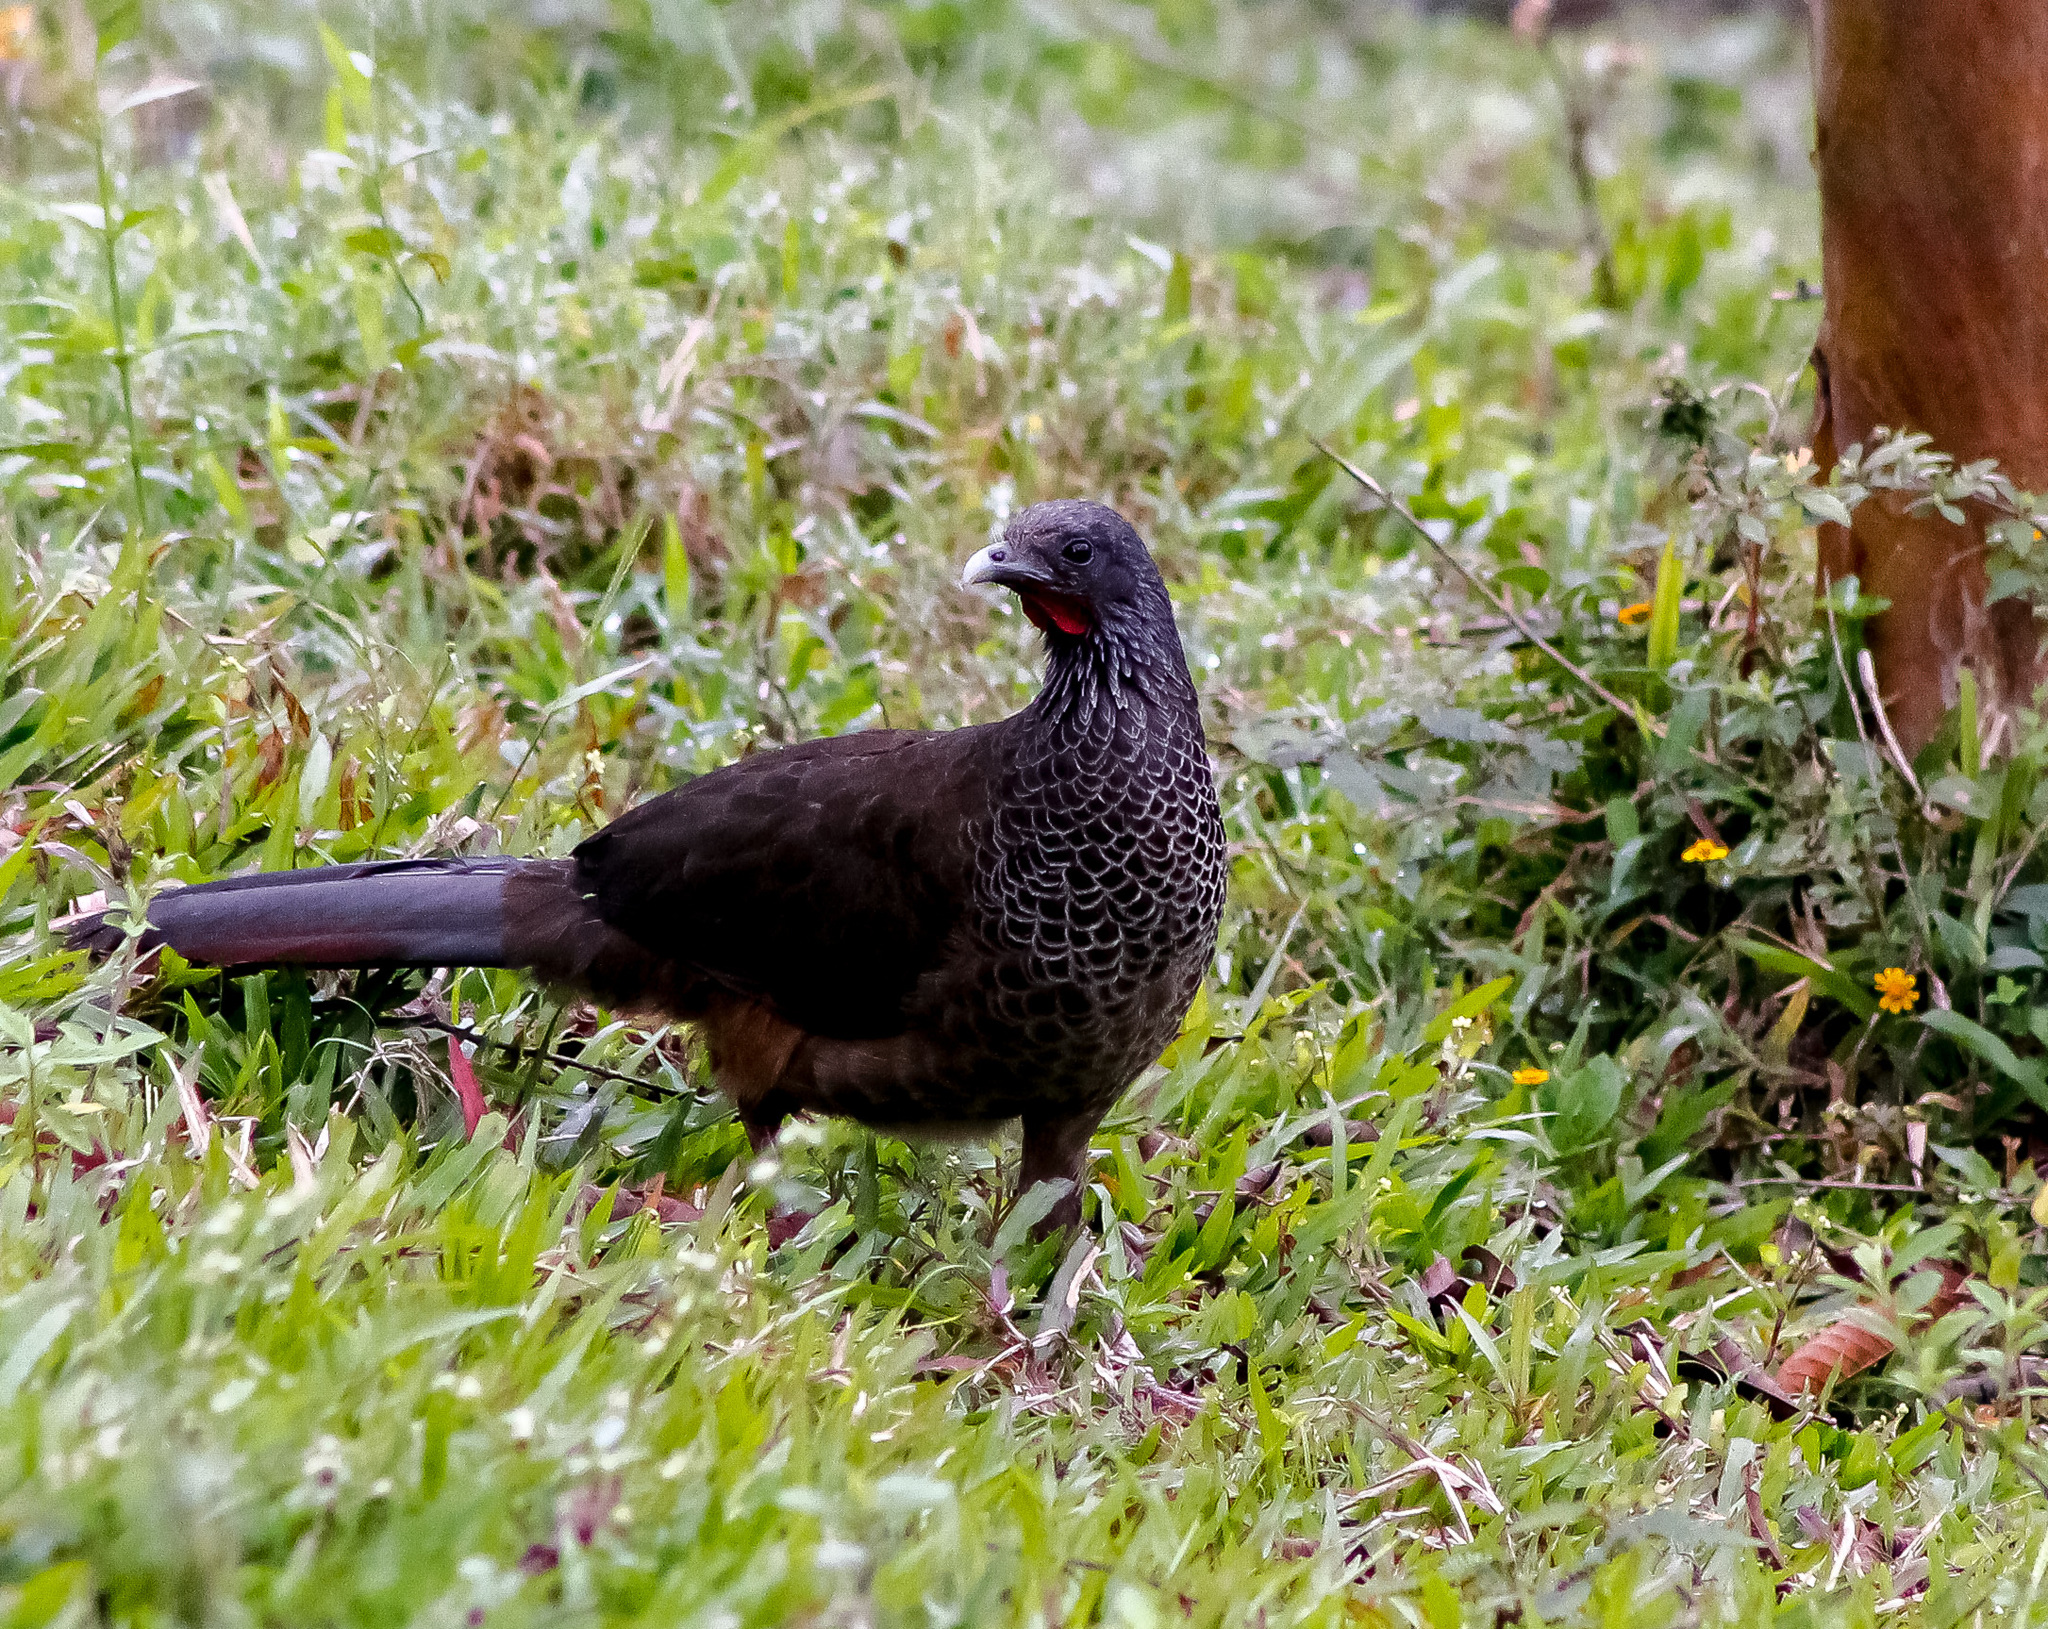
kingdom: Animalia
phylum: Chordata
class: Aves
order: Galliformes
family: Cracidae
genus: Ortalis
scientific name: Ortalis columbiana
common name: Colombian chachalaca
